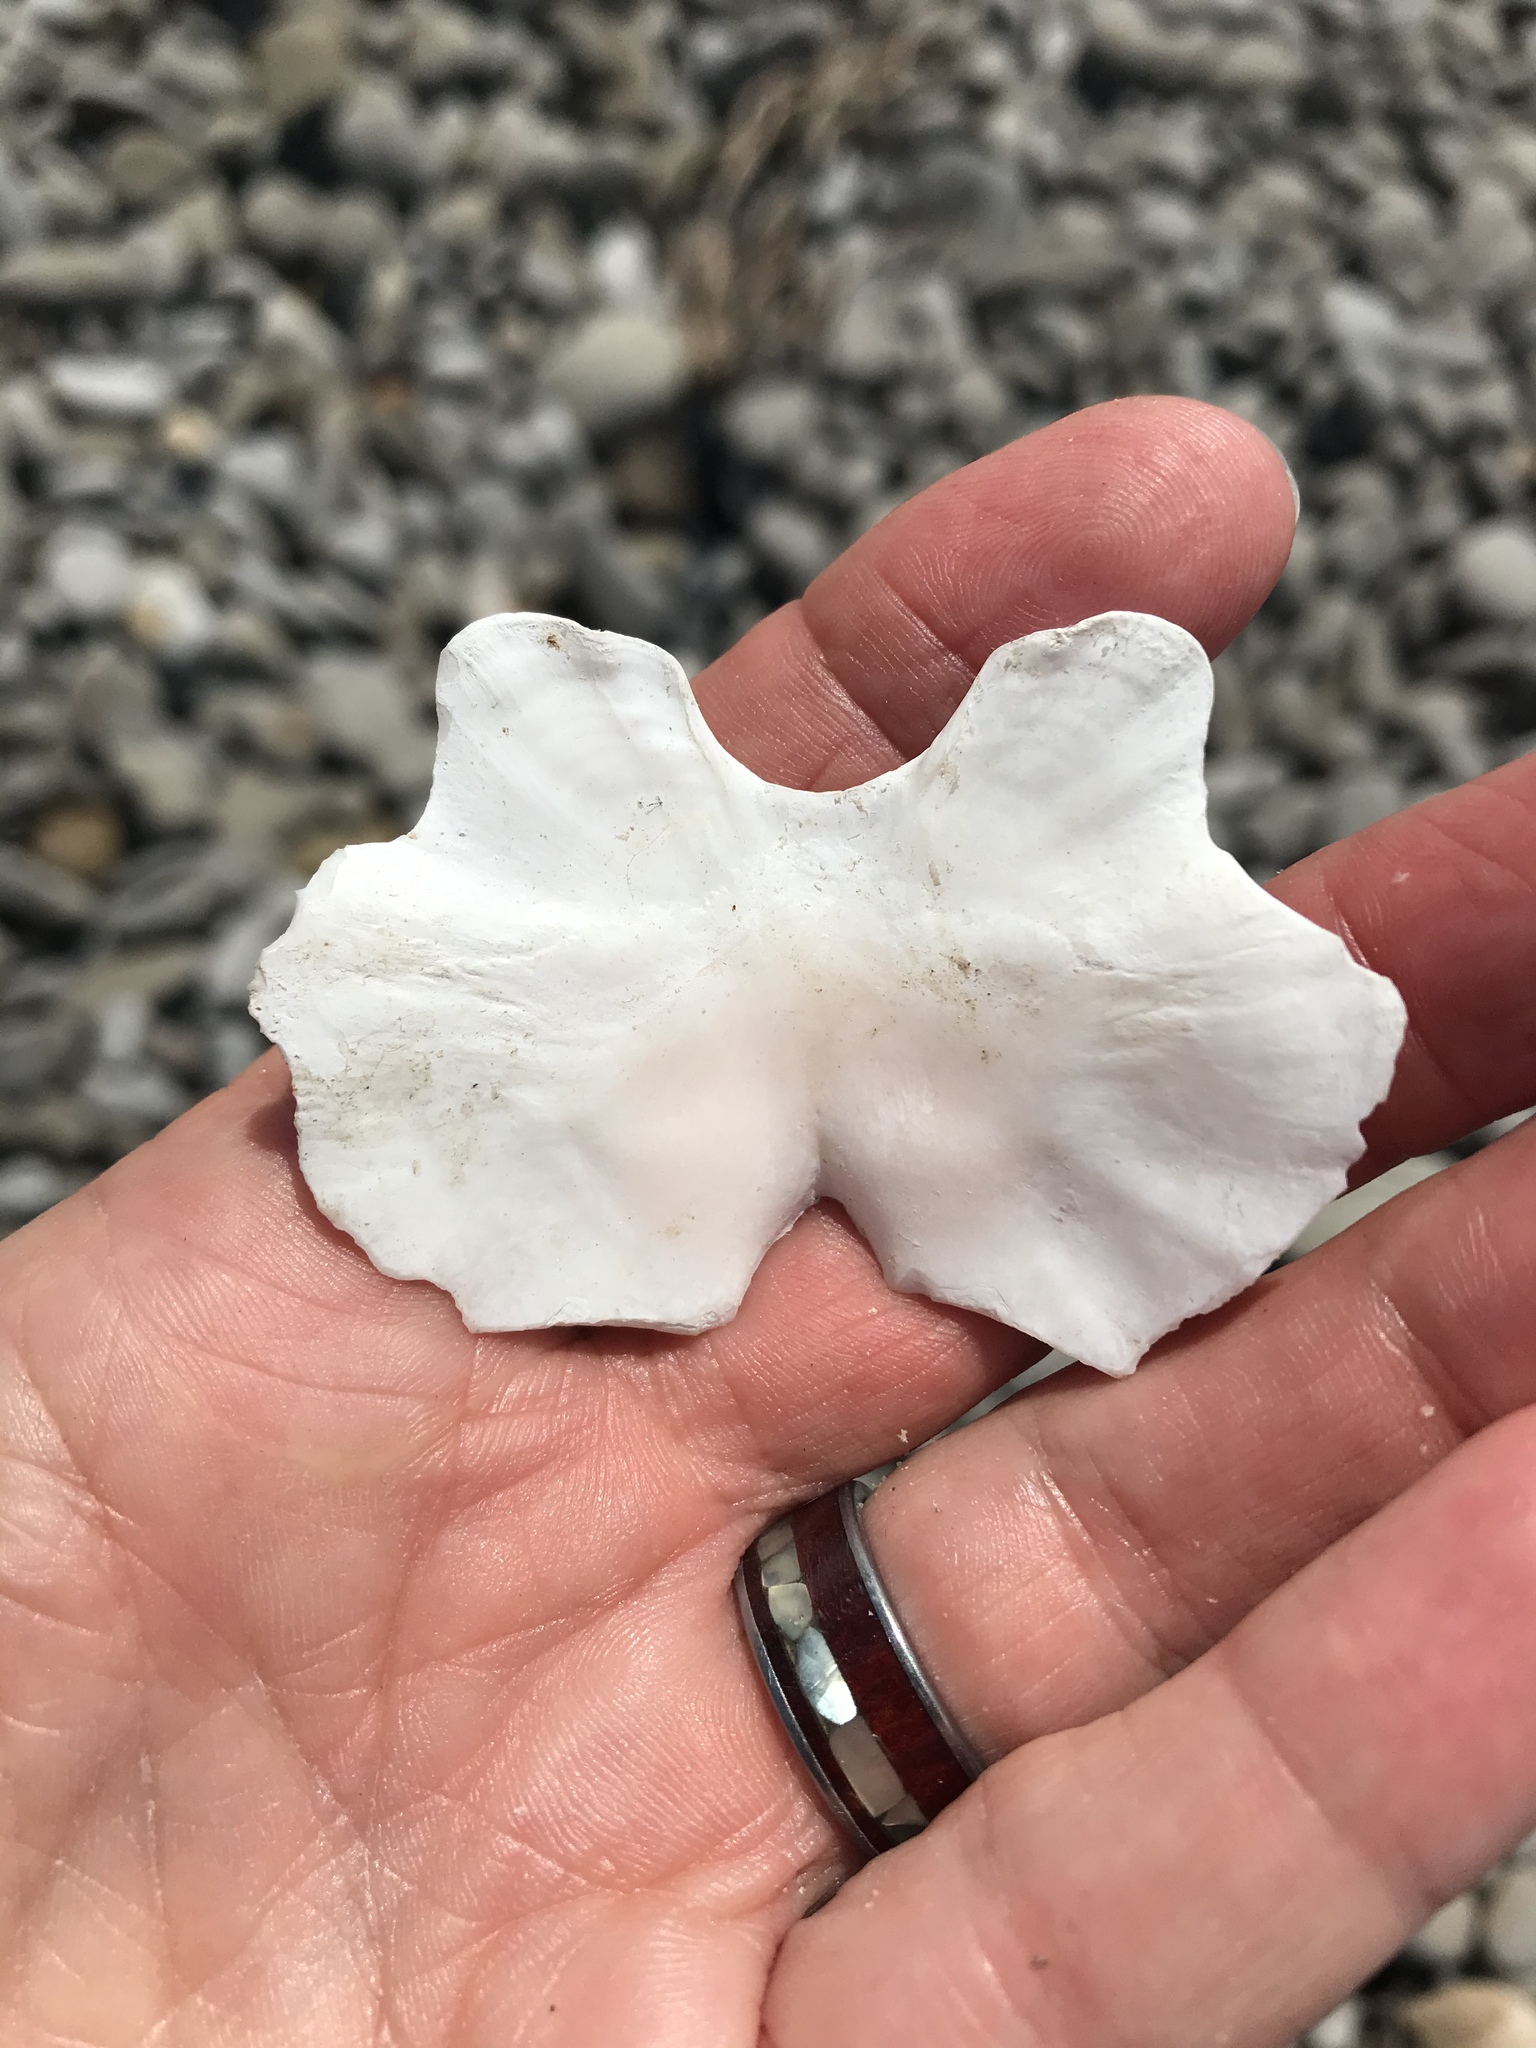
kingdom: Animalia
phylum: Mollusca
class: Polyplacophora
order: Chitonida
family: Acanthochitonidae
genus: Cryptochiton
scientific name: Cryptochiton stelleri
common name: Giant pacific chiton
